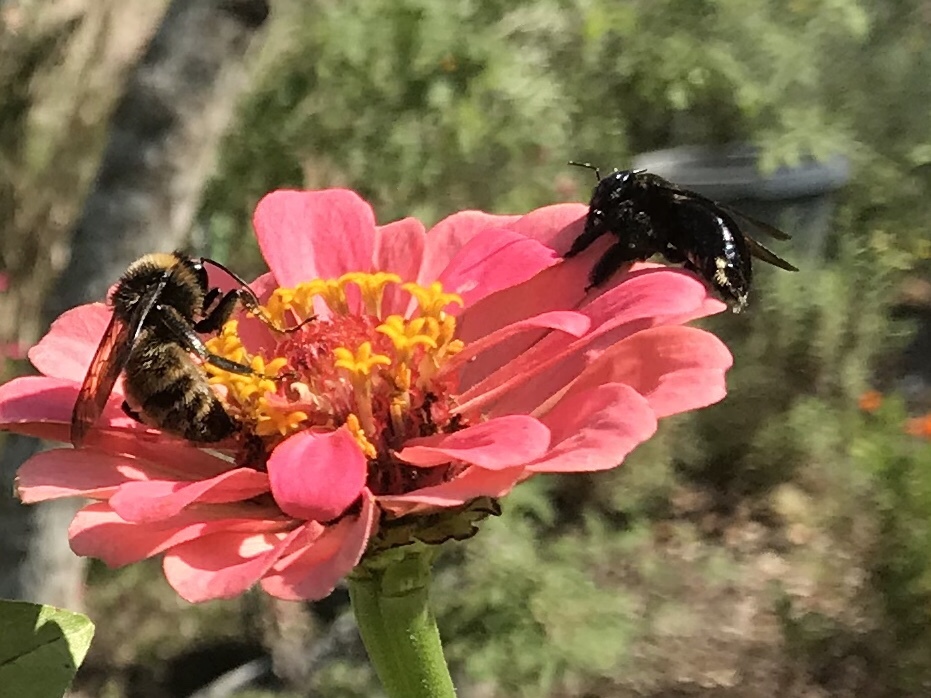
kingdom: Animalia
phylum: Arthropoda
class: Insecta
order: Hymenoptera
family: Apidae
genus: Xylocopa
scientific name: Xylocopa micans
